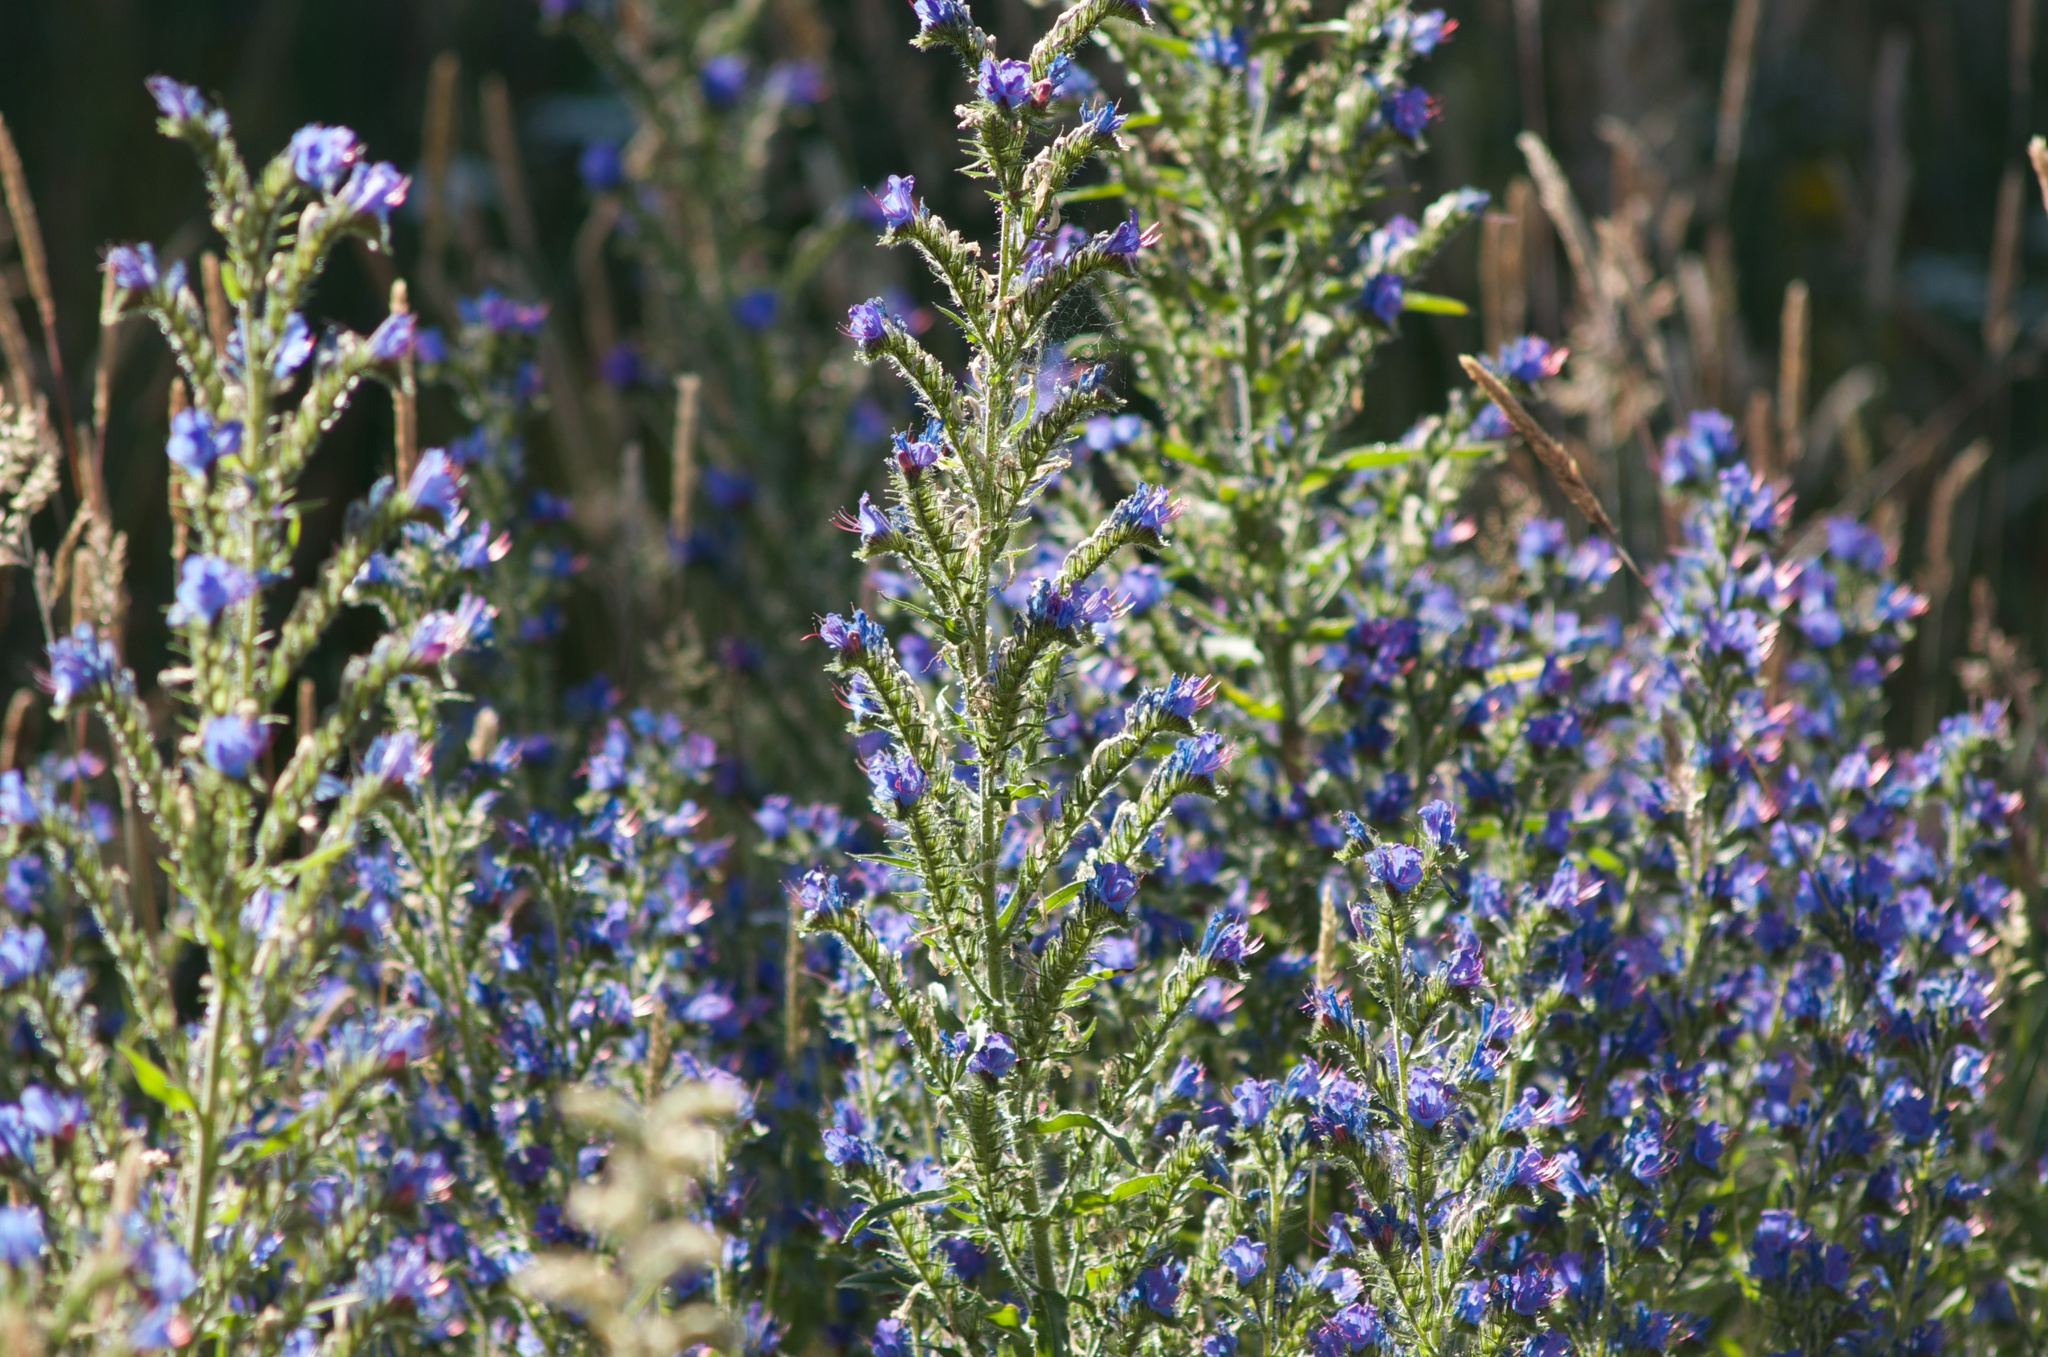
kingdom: Plantae
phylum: Tracheophyta
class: Magnoliopsida
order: Boraginales
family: Boraginaceae
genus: Echium
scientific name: Echium vulgare
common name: Common viper's bugloss
